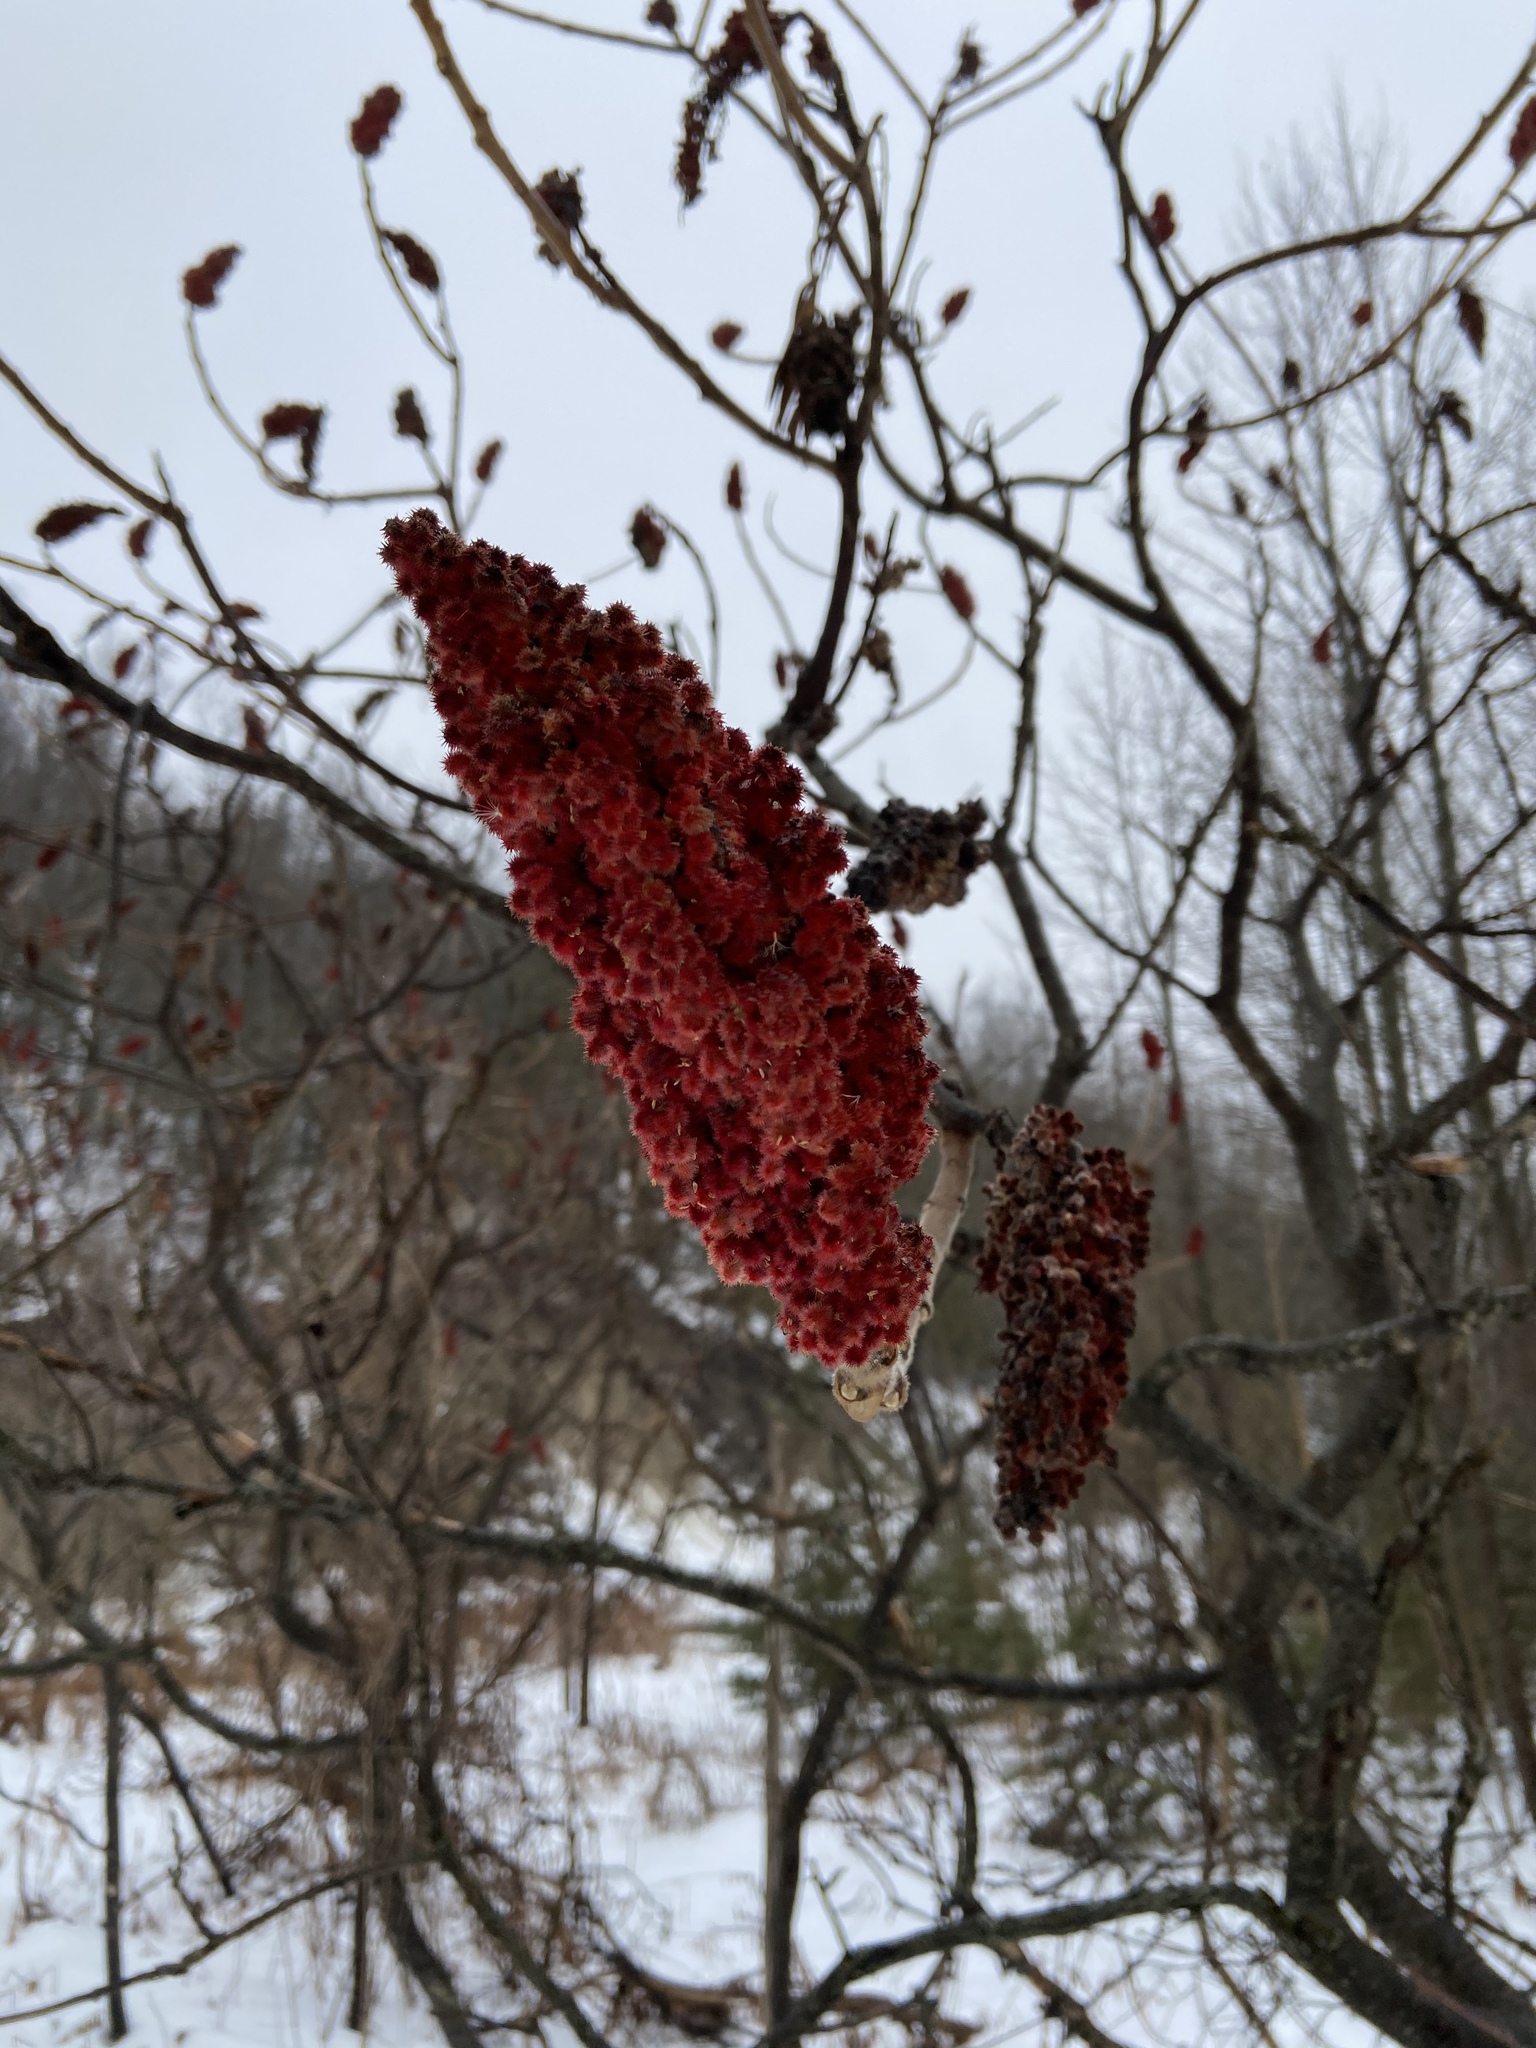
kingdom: Plantae
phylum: Tracheophyta
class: Magnoliopsida
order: Sapindales
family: Anacardiaceae
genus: Rhus
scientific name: Rhus typhina
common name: Staghorn sumac
